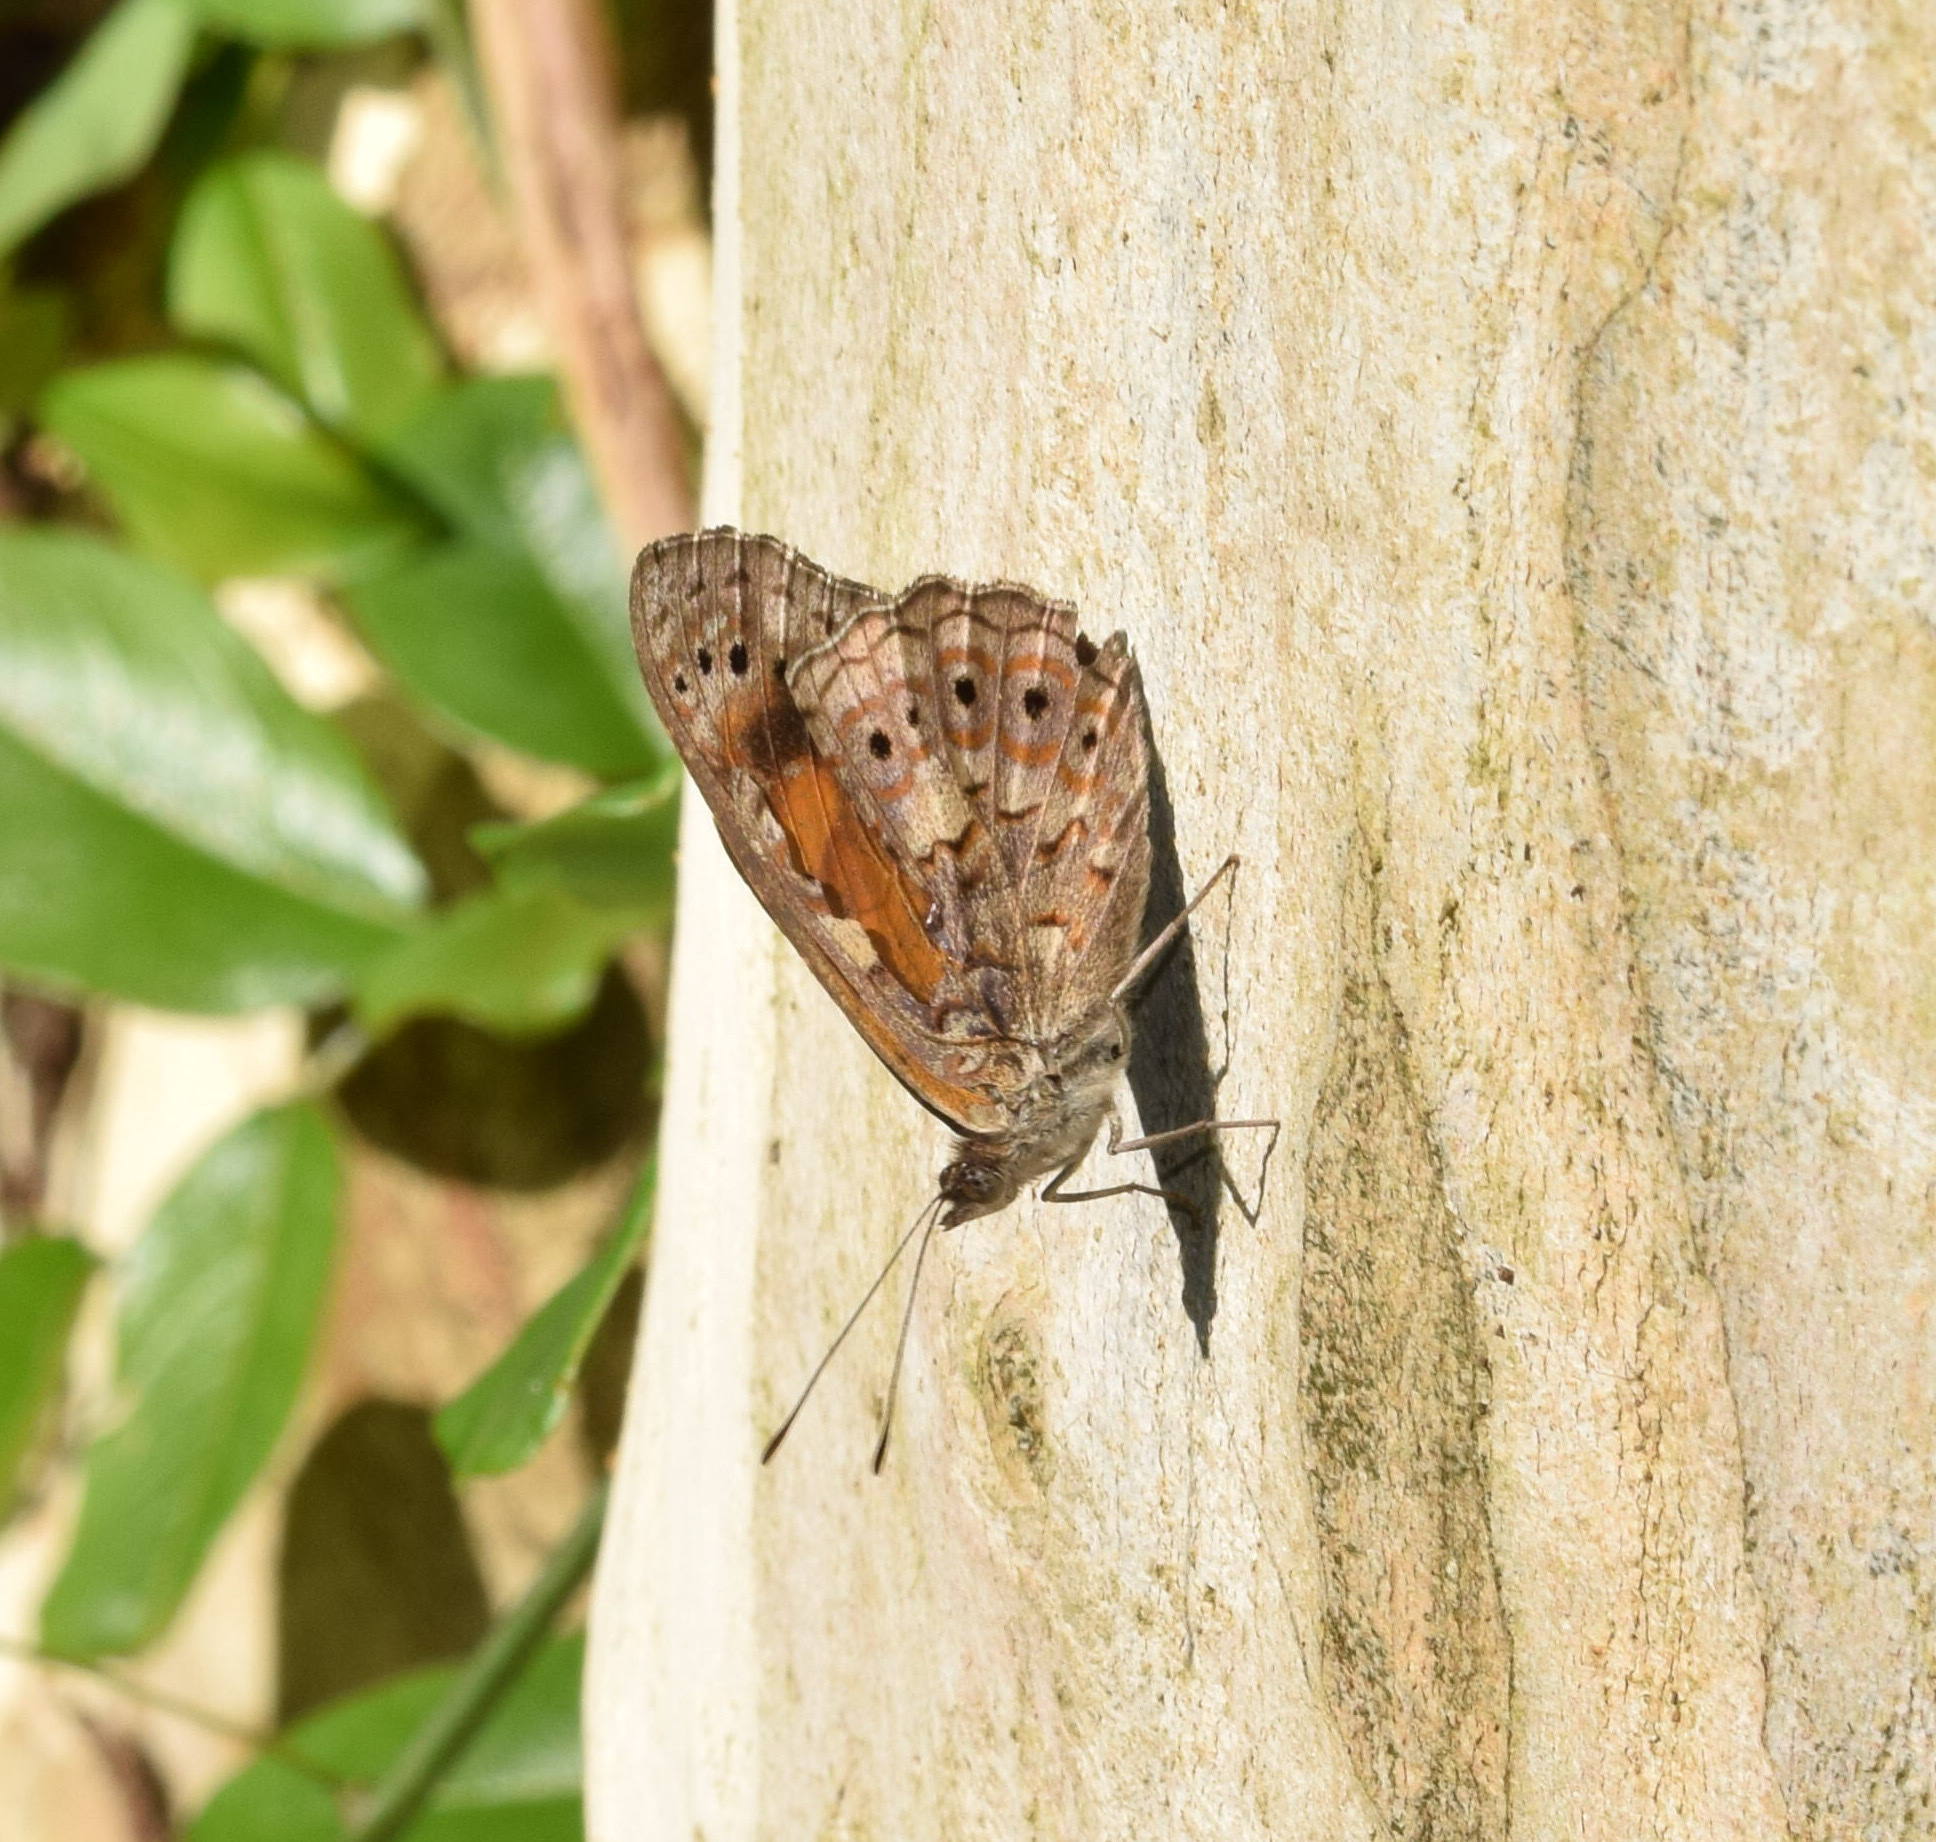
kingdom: Animalia
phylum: Arthropoda
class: Insecta
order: Lepidoptera
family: Nymphalidae
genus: Asterope
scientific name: Asterope boisduvali
